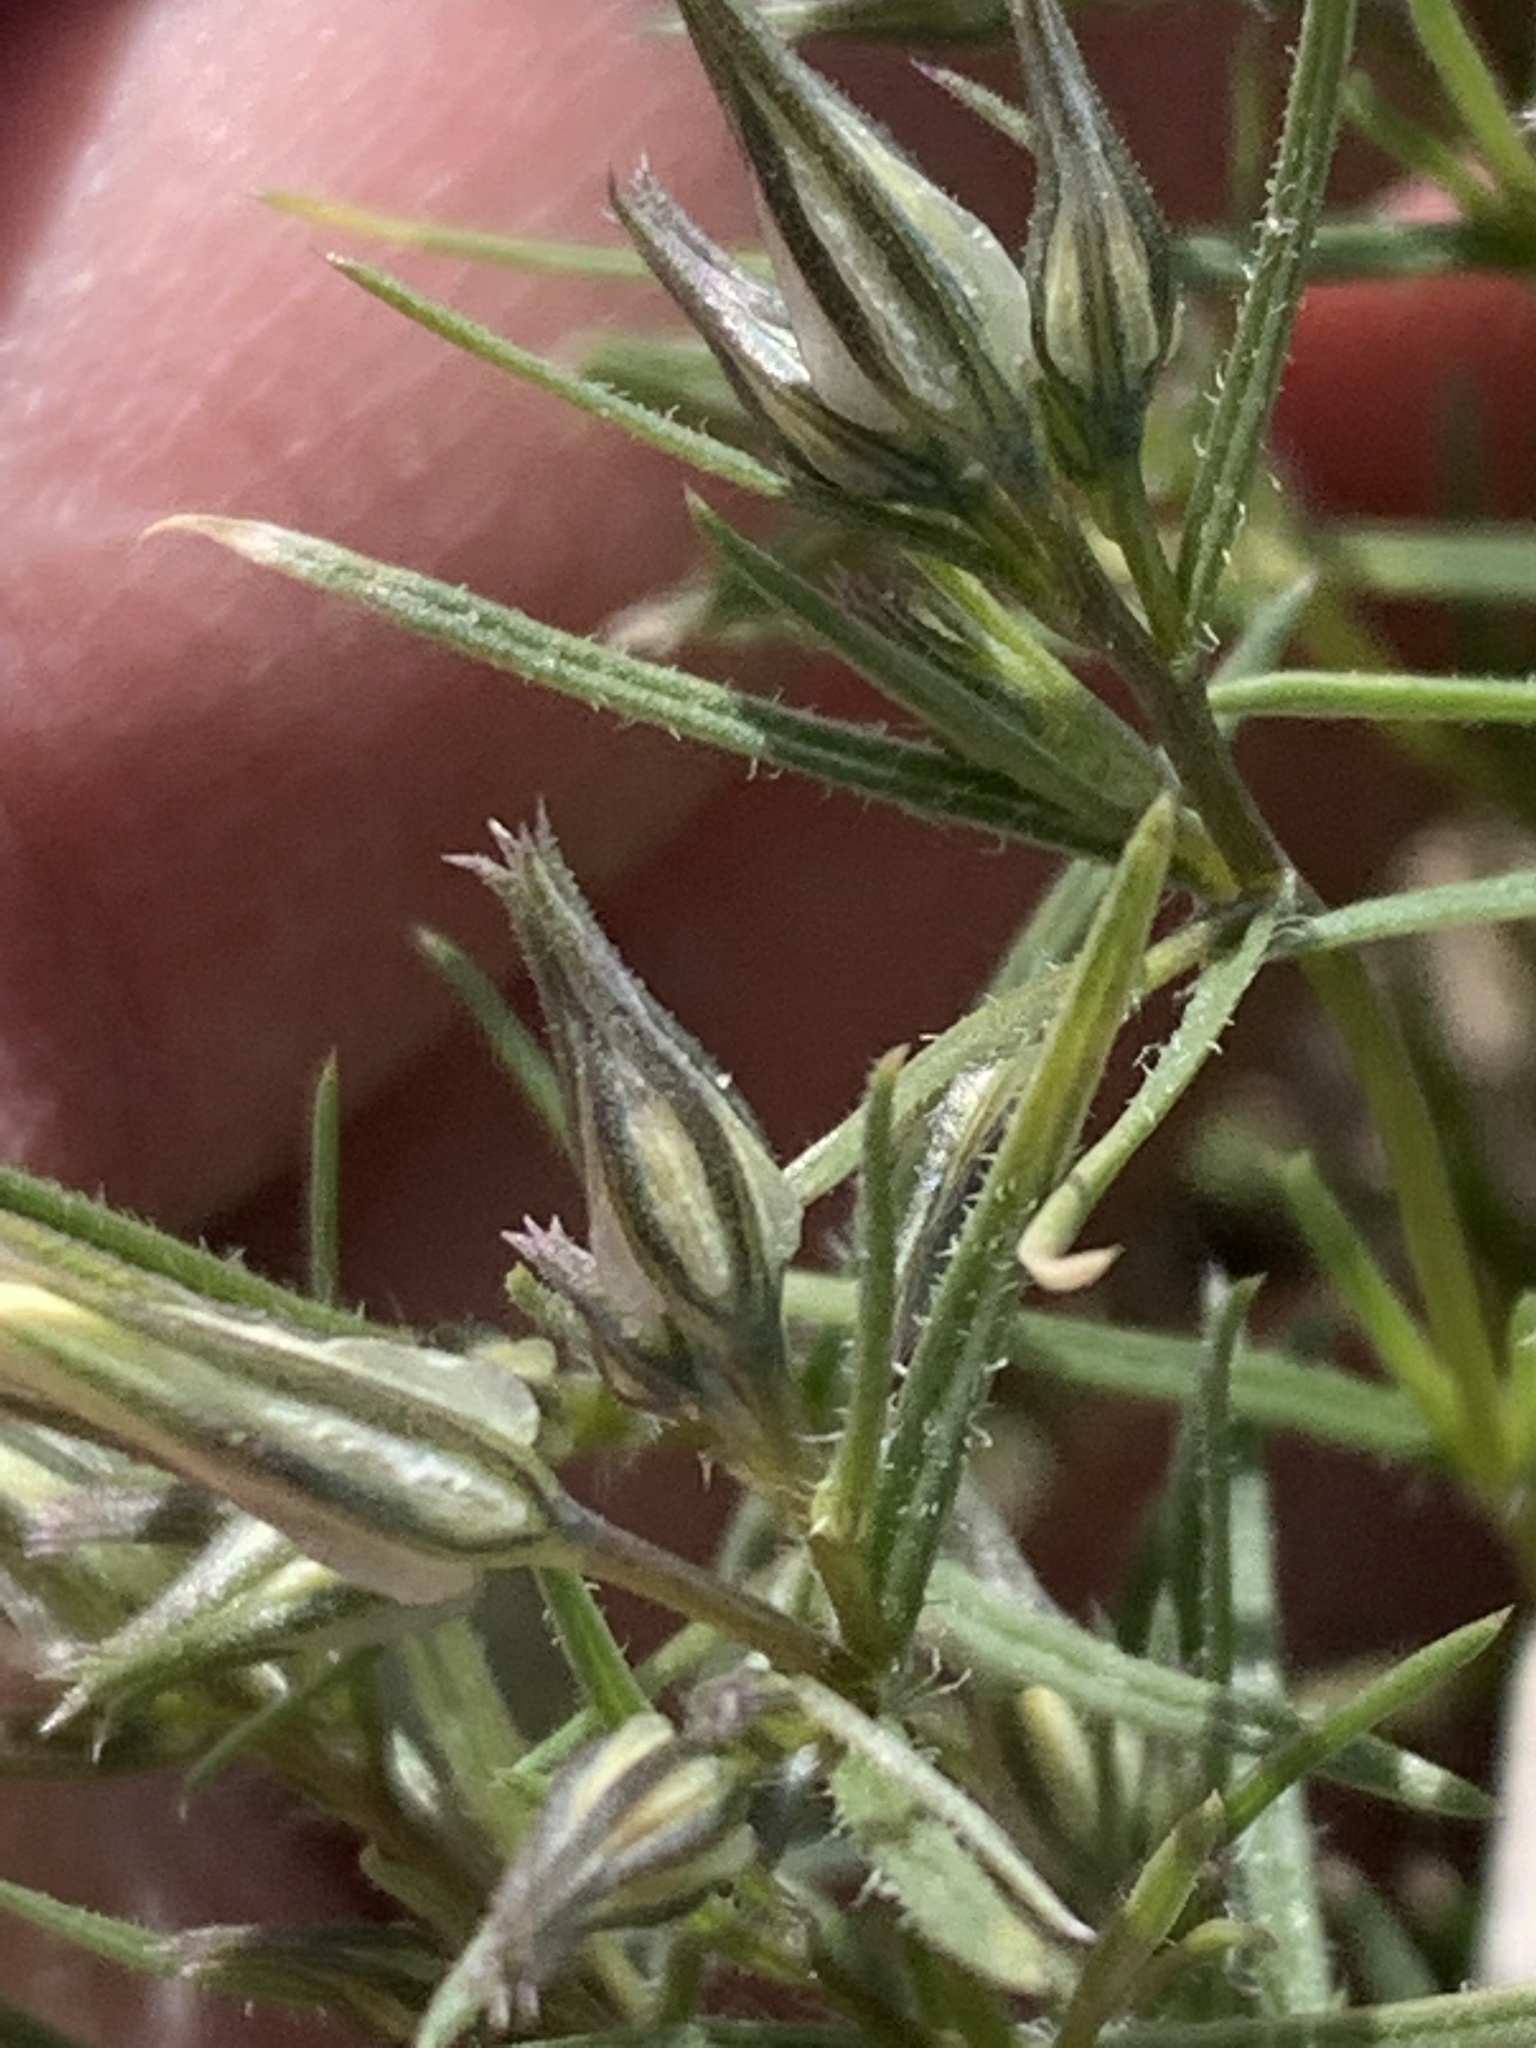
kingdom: Plantae
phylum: Tracheophyta
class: Magnoliopsida
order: Ericales
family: Polemoniaceae
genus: Phlox
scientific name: Phlox longifolia
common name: Longleaf phlox
